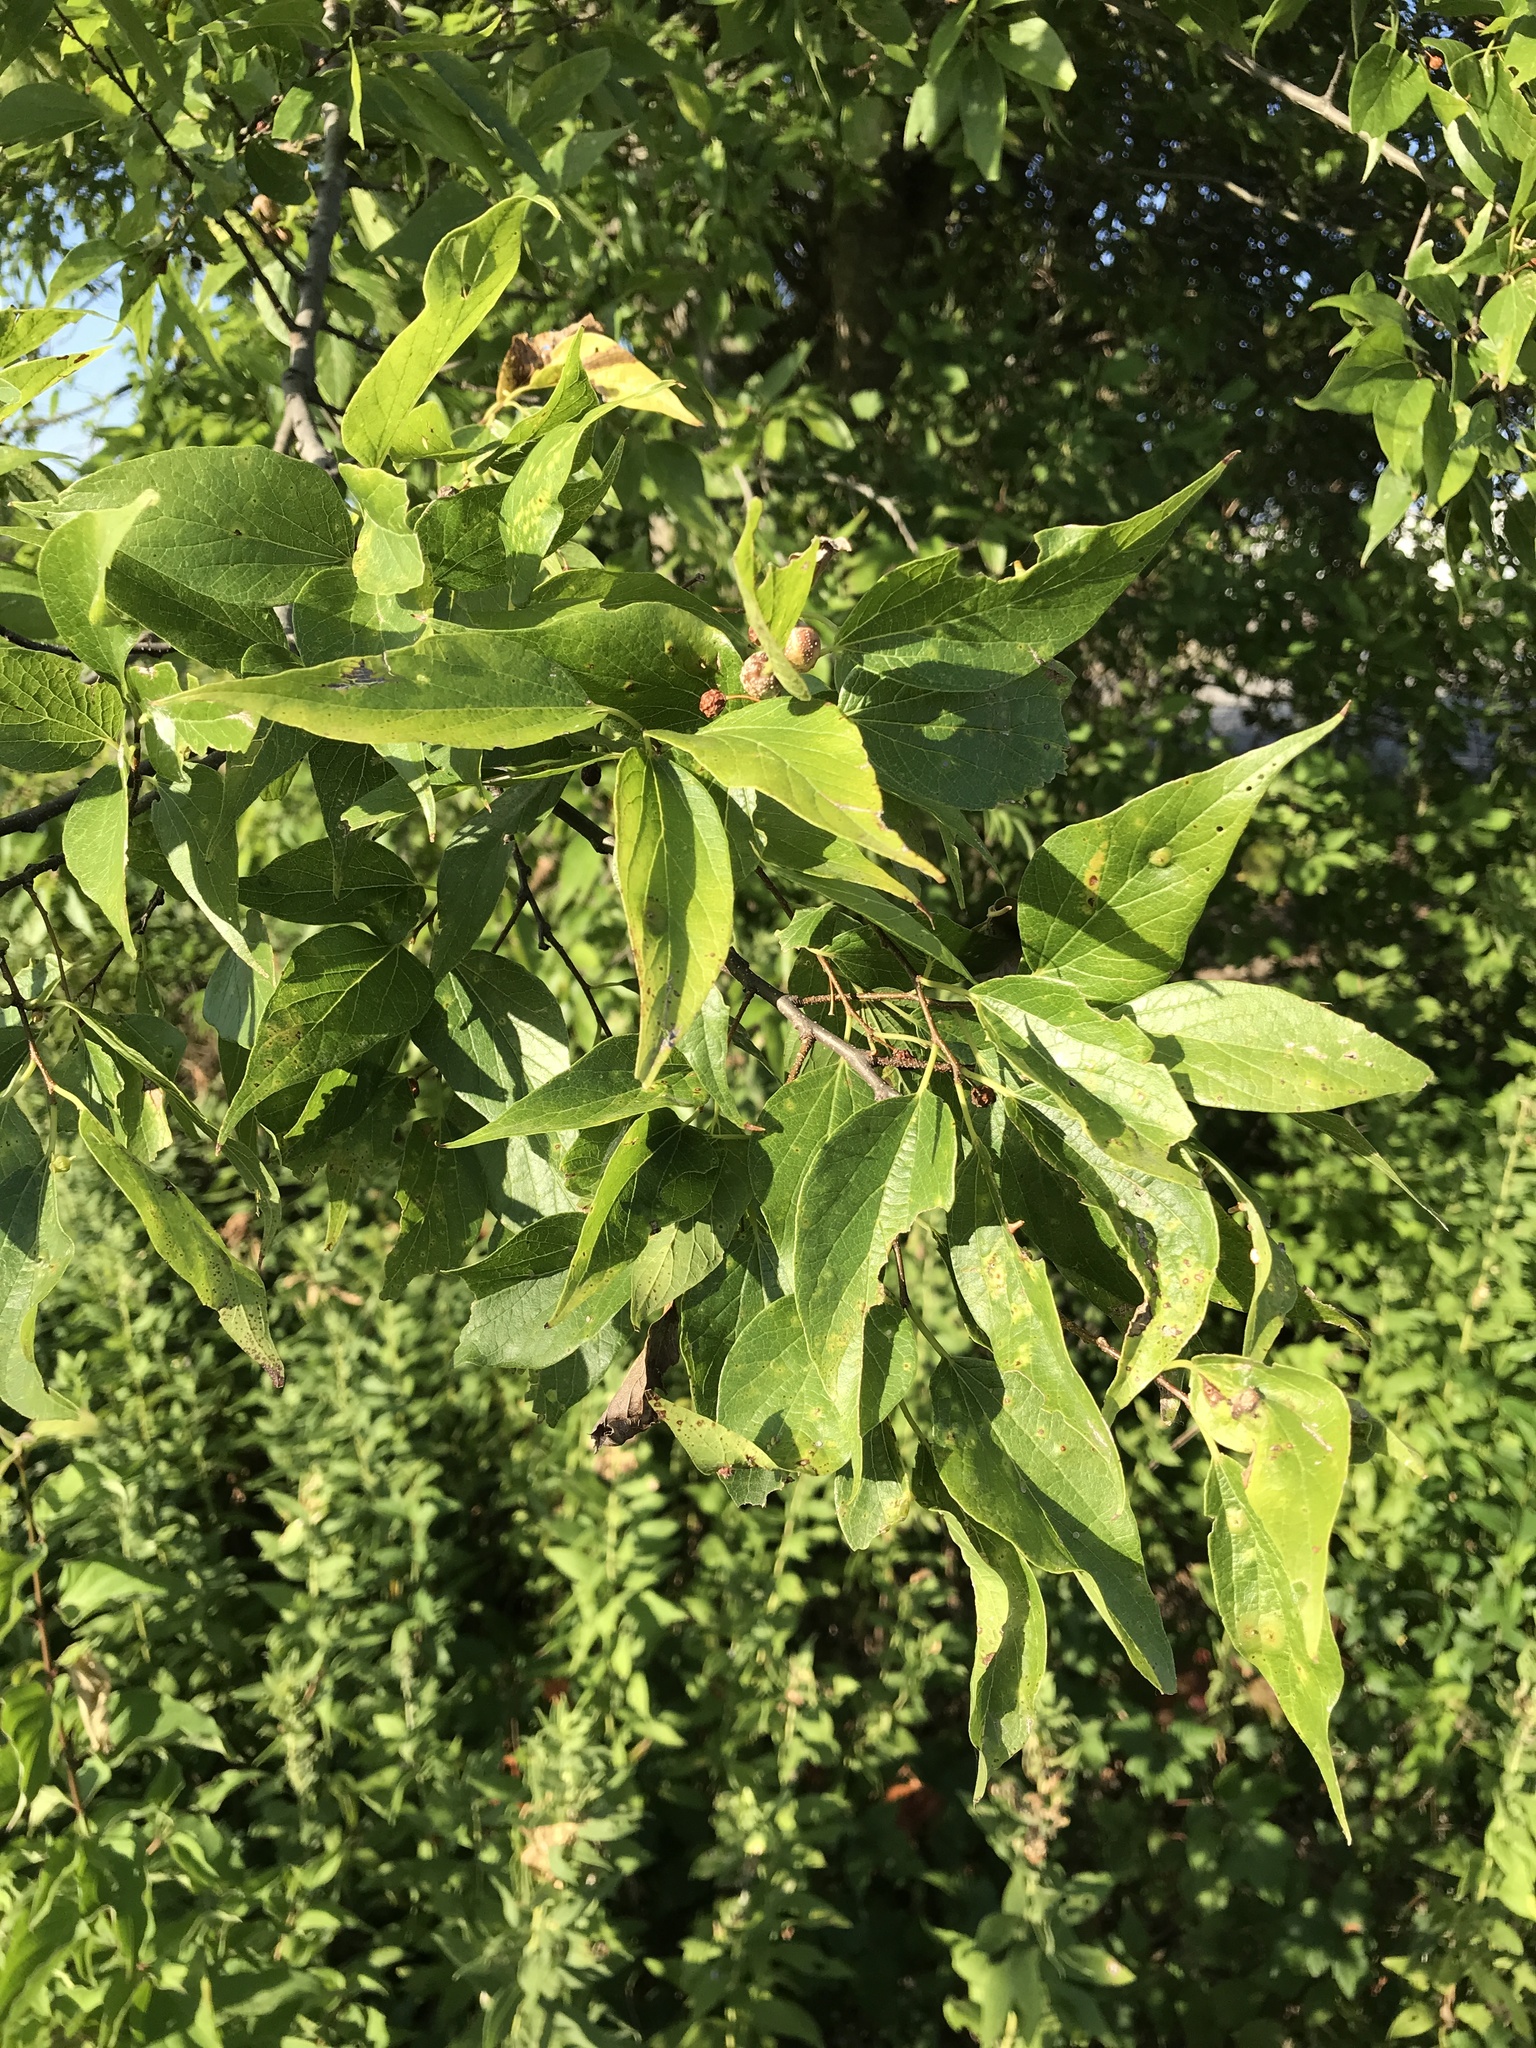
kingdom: Plantae
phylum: Tracheophyta
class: Magnoliopsida
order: Rosales
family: Cannabaceae
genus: Celtis
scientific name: Celtis laevigata
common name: Sugarberry
